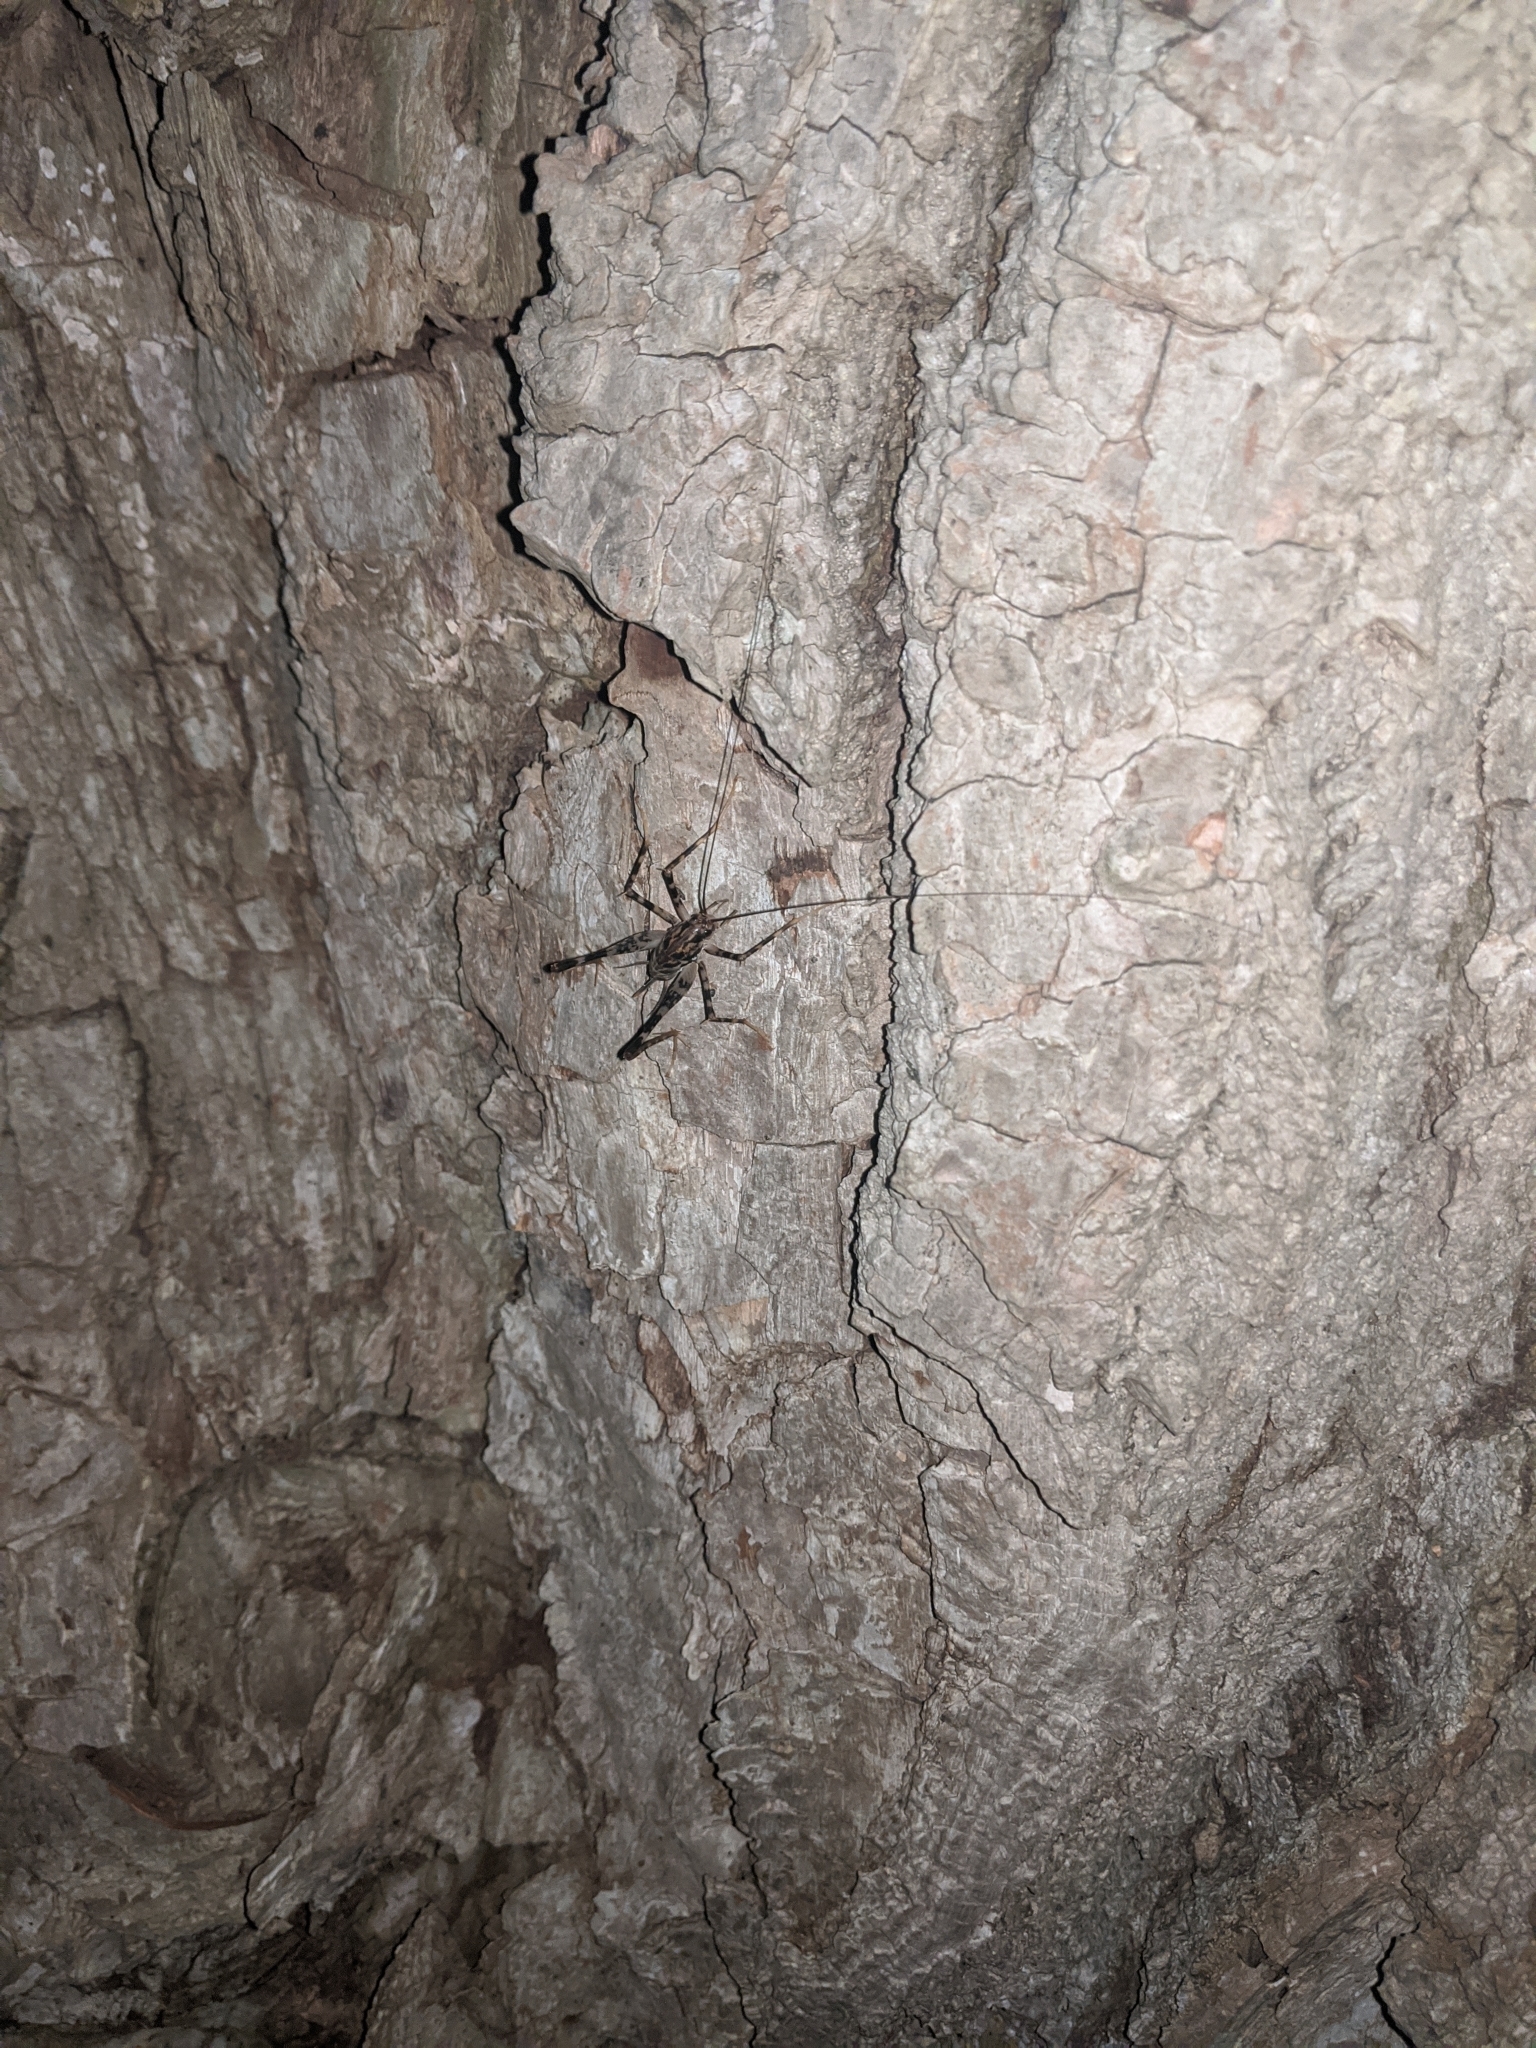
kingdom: Animalia
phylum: Arthropoda
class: Insecta
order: Orthoptera
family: Rhaphidophoridae
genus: Diestrammena
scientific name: Diestrammena japanica
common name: Japanese camel cricket
